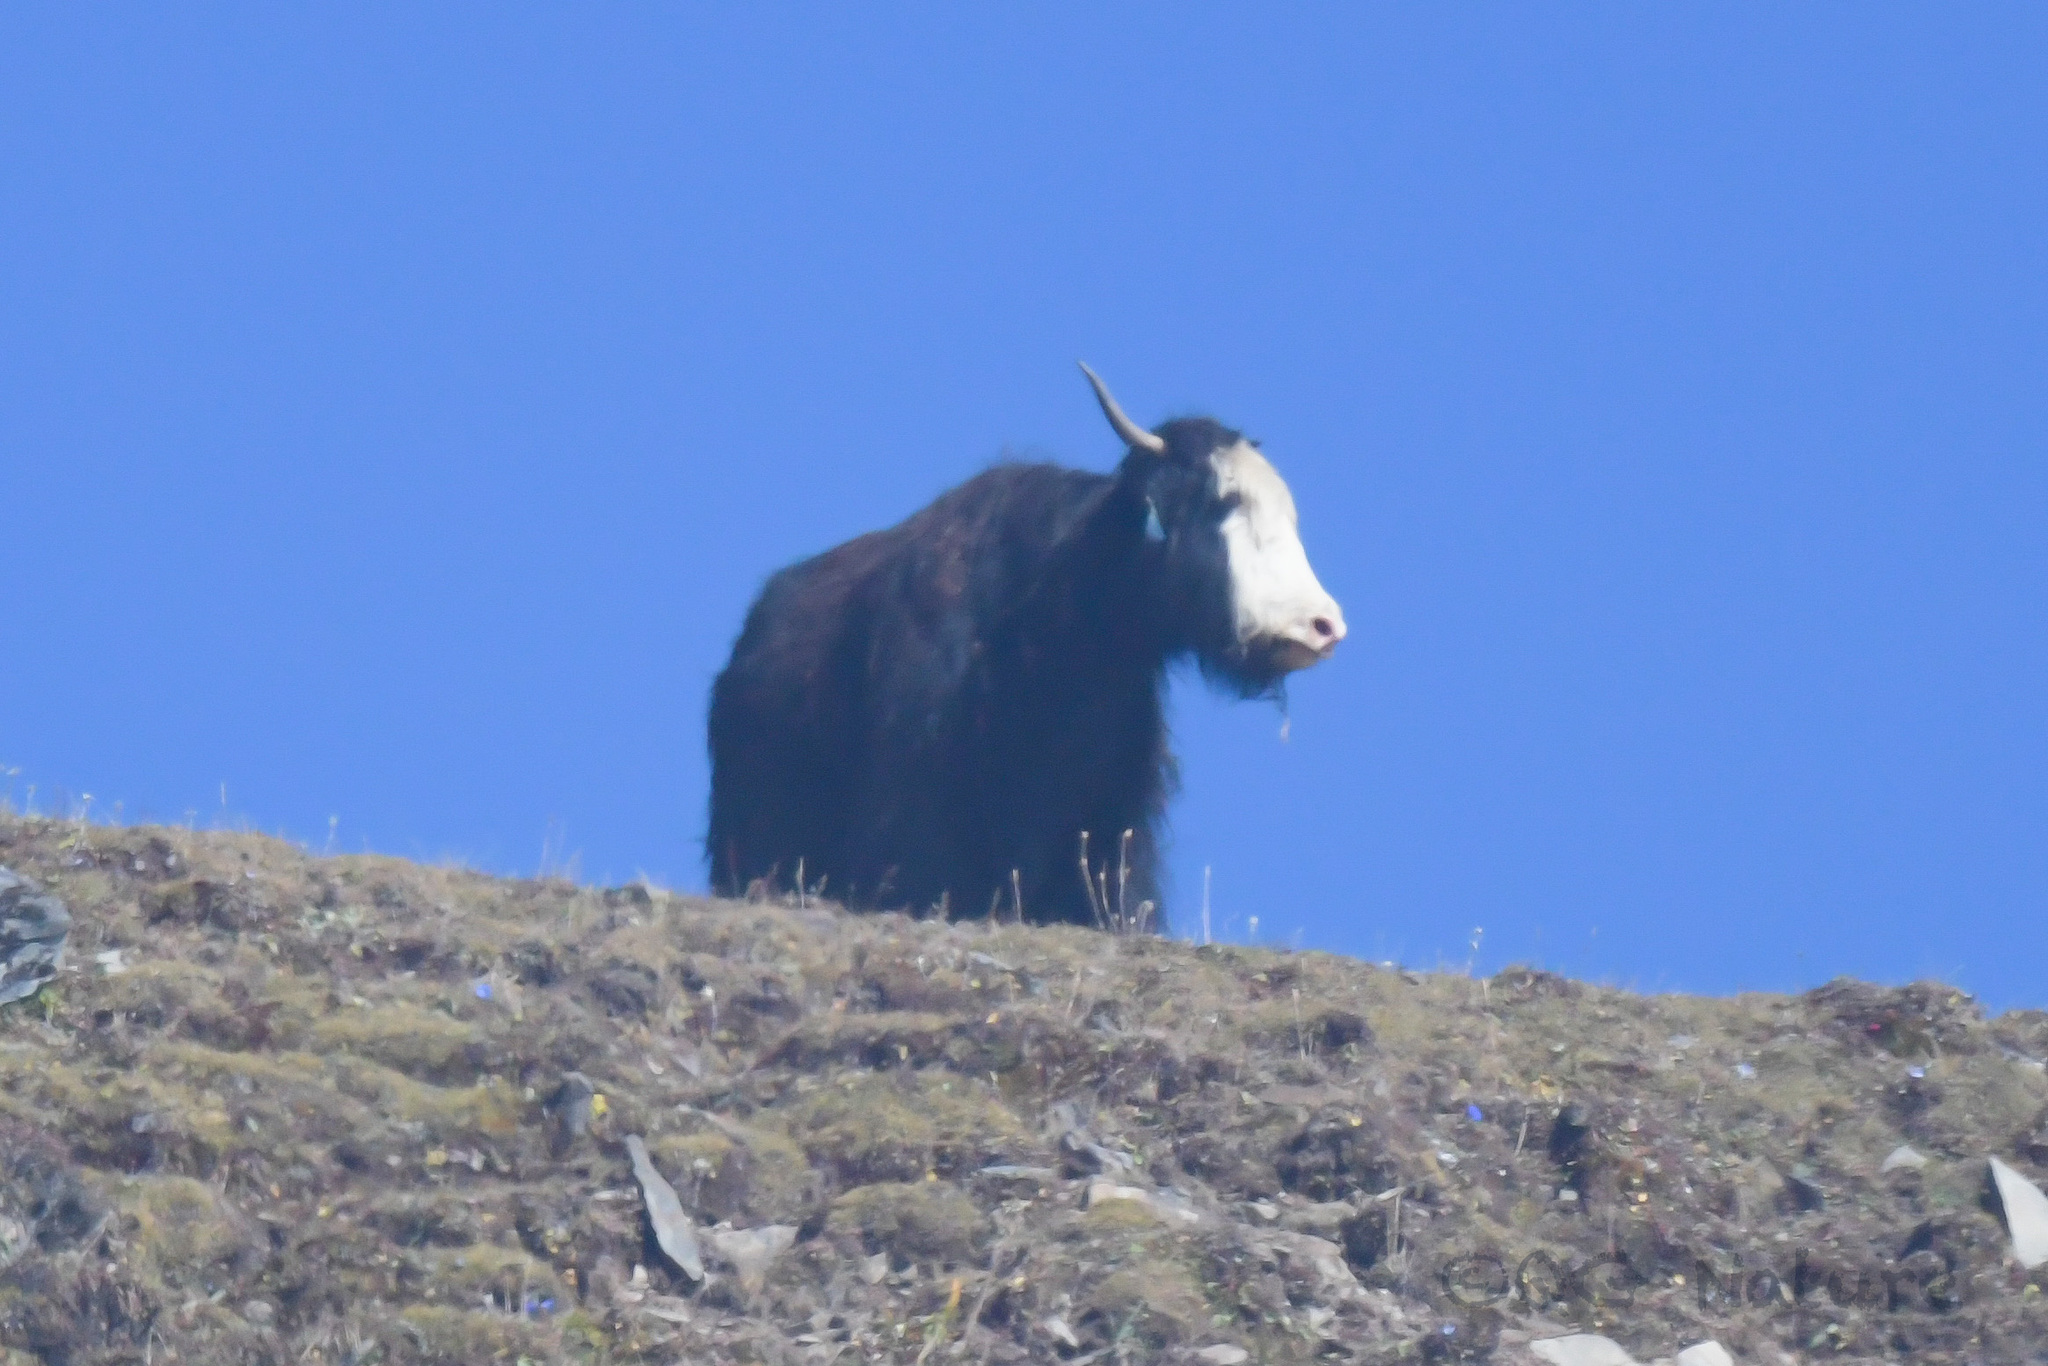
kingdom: Animalia
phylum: Chordata
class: Mammalia
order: Artiodactyla
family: Bovidae
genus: Bos
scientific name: Bos grunniens
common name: Yak
